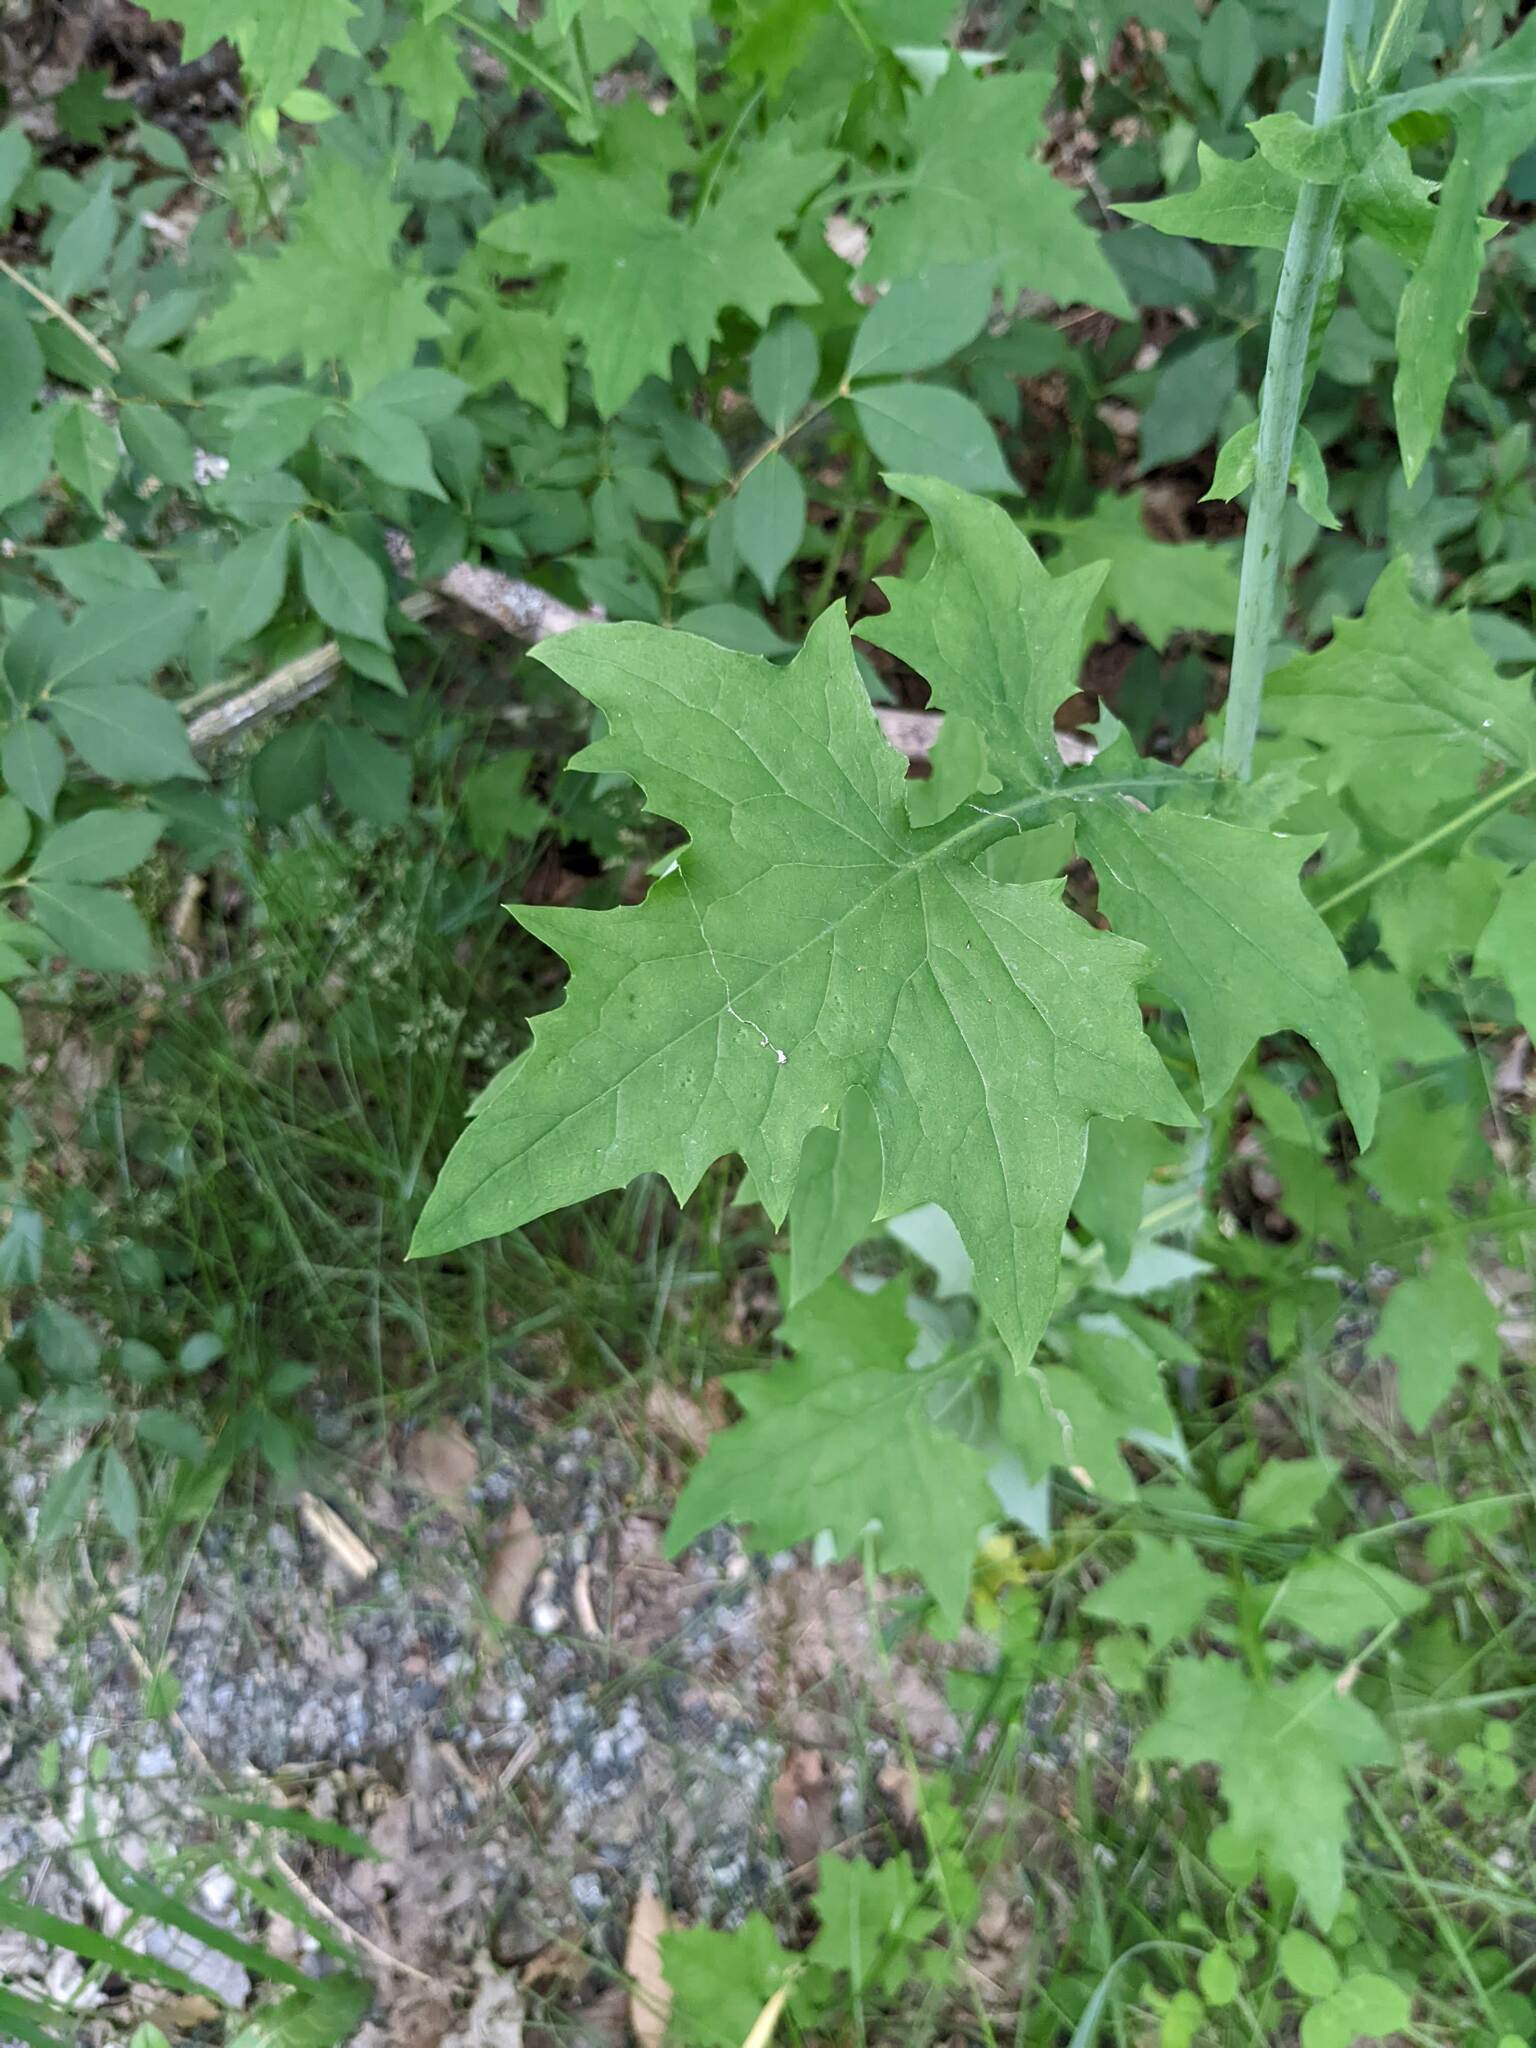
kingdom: Plantae
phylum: Tracheophyta
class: Magnoliopsida
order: Asterales
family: Asteraceae
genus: Mycelis
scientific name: Mycelis muralis
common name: Wall lettuce
